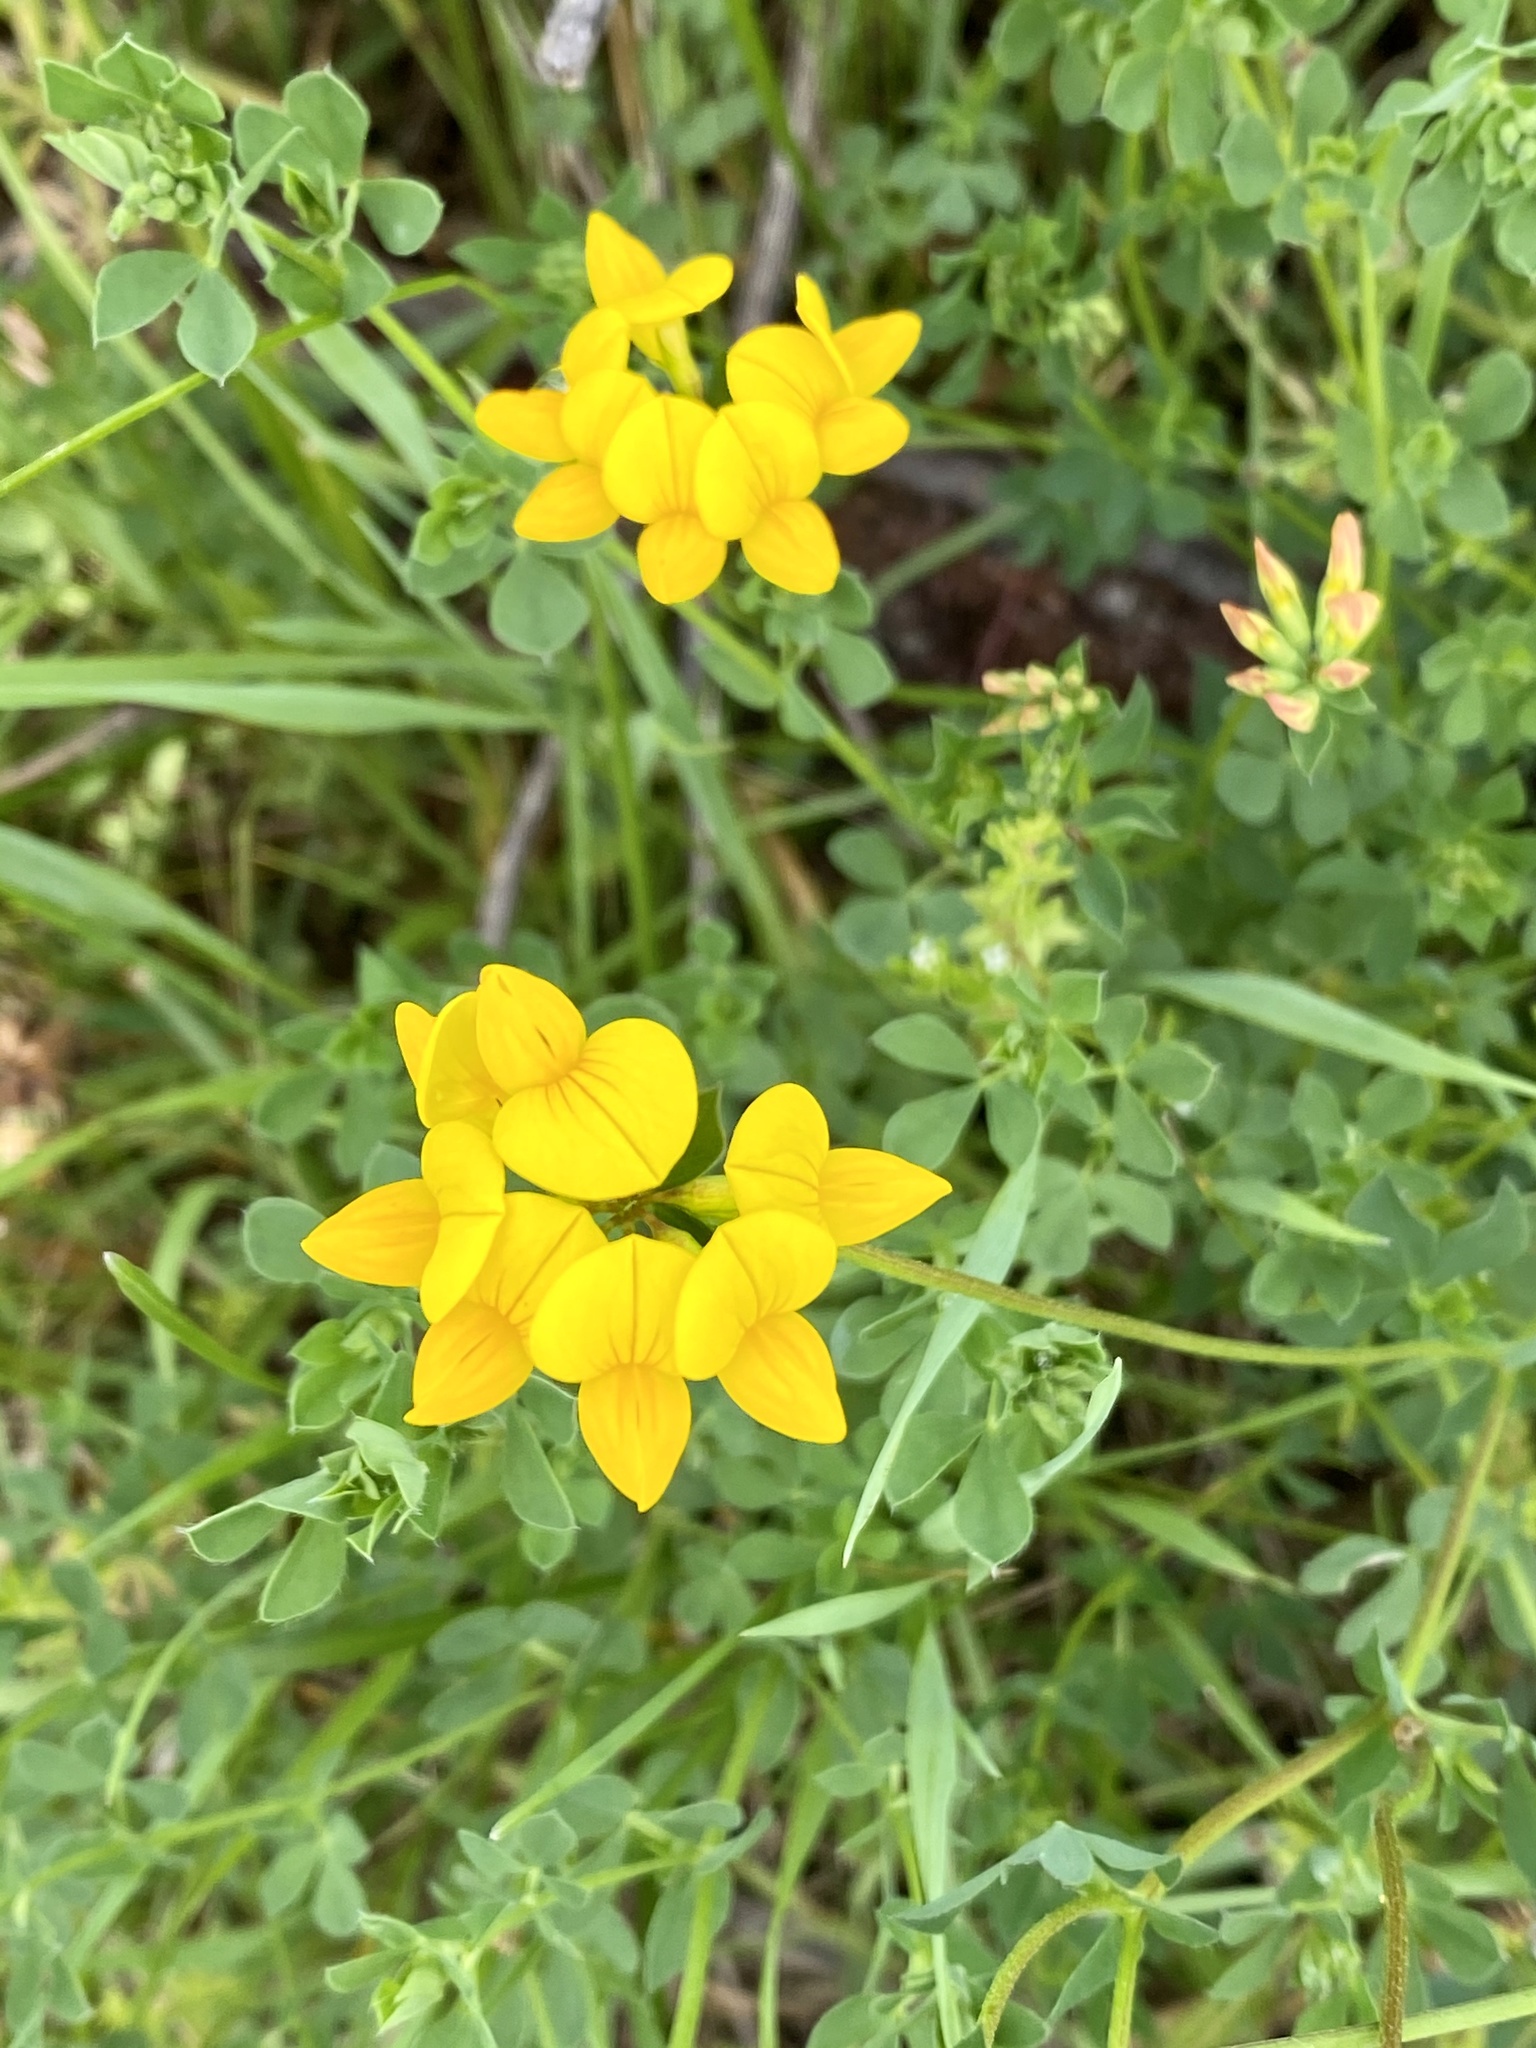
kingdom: Plantae
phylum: Tracheophyta
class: Magnoliopsida
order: Fabales
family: Fabaceae
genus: Lotus
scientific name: Lotus corniculatus
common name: Common bird's-foot-trefoil
